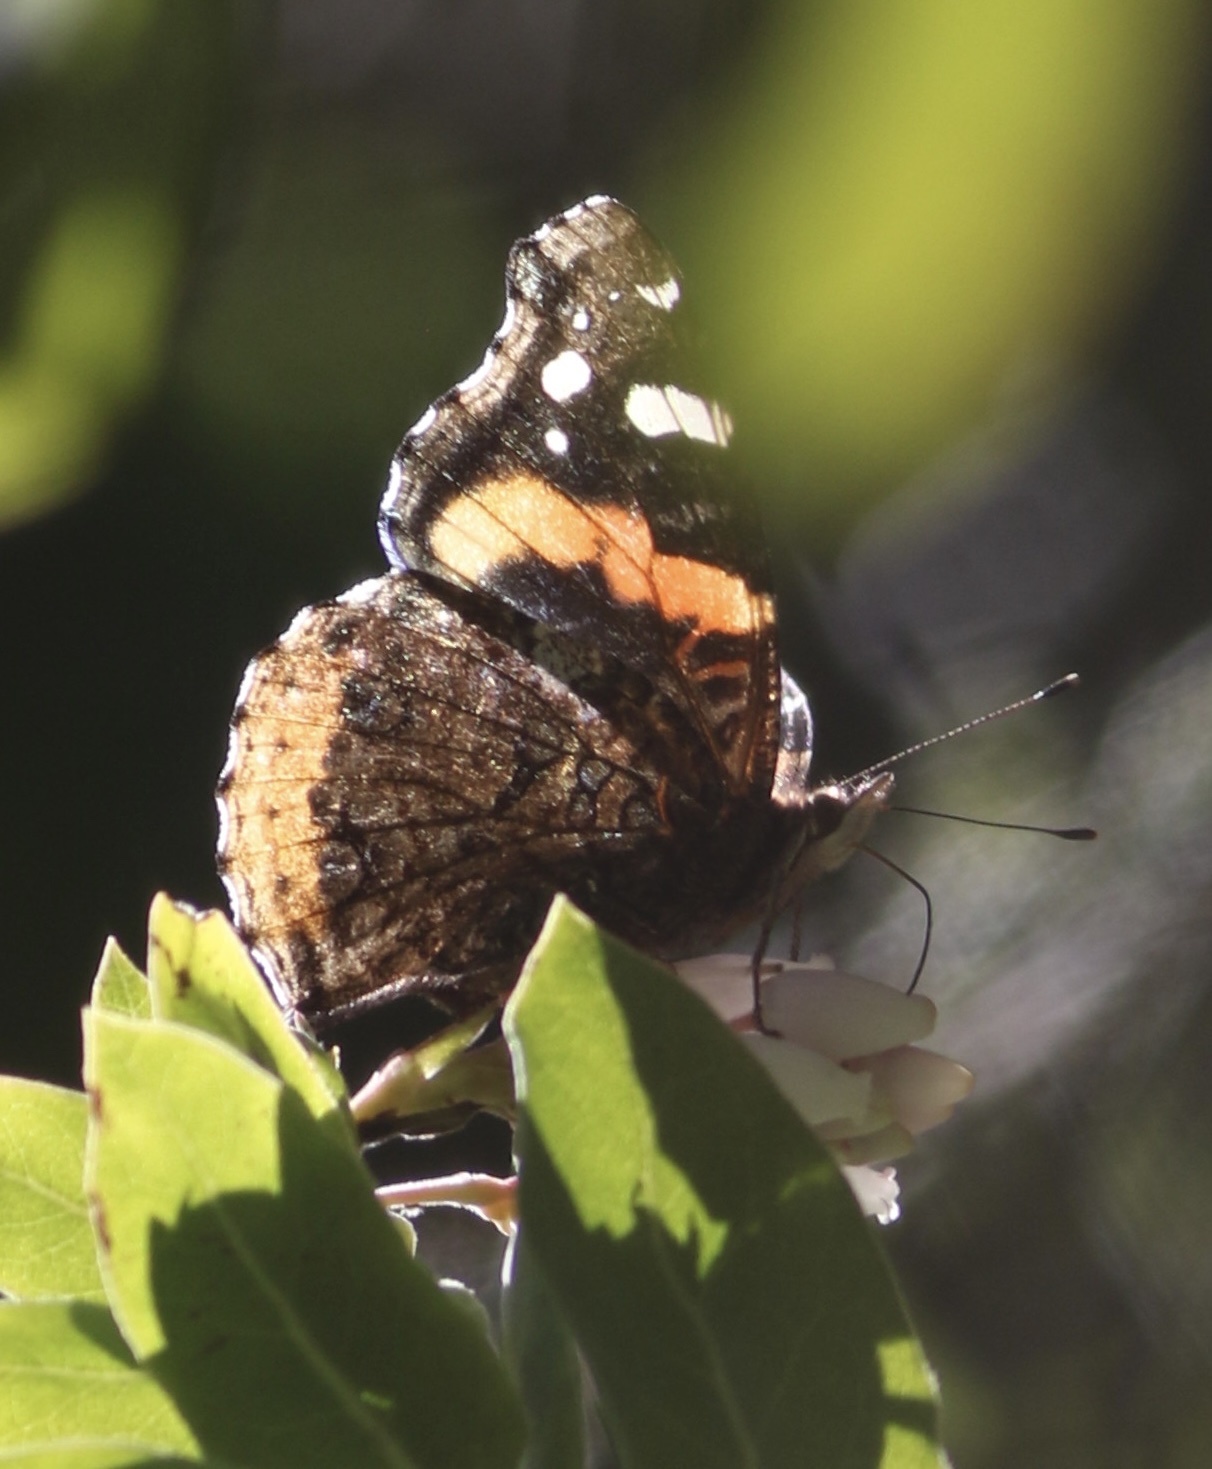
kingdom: Animalia
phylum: Arthropoda
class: Insecta
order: Lepidoptera
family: Nymphalidae
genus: Vanessa
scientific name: Vanessa atalanta
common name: Red admiral
